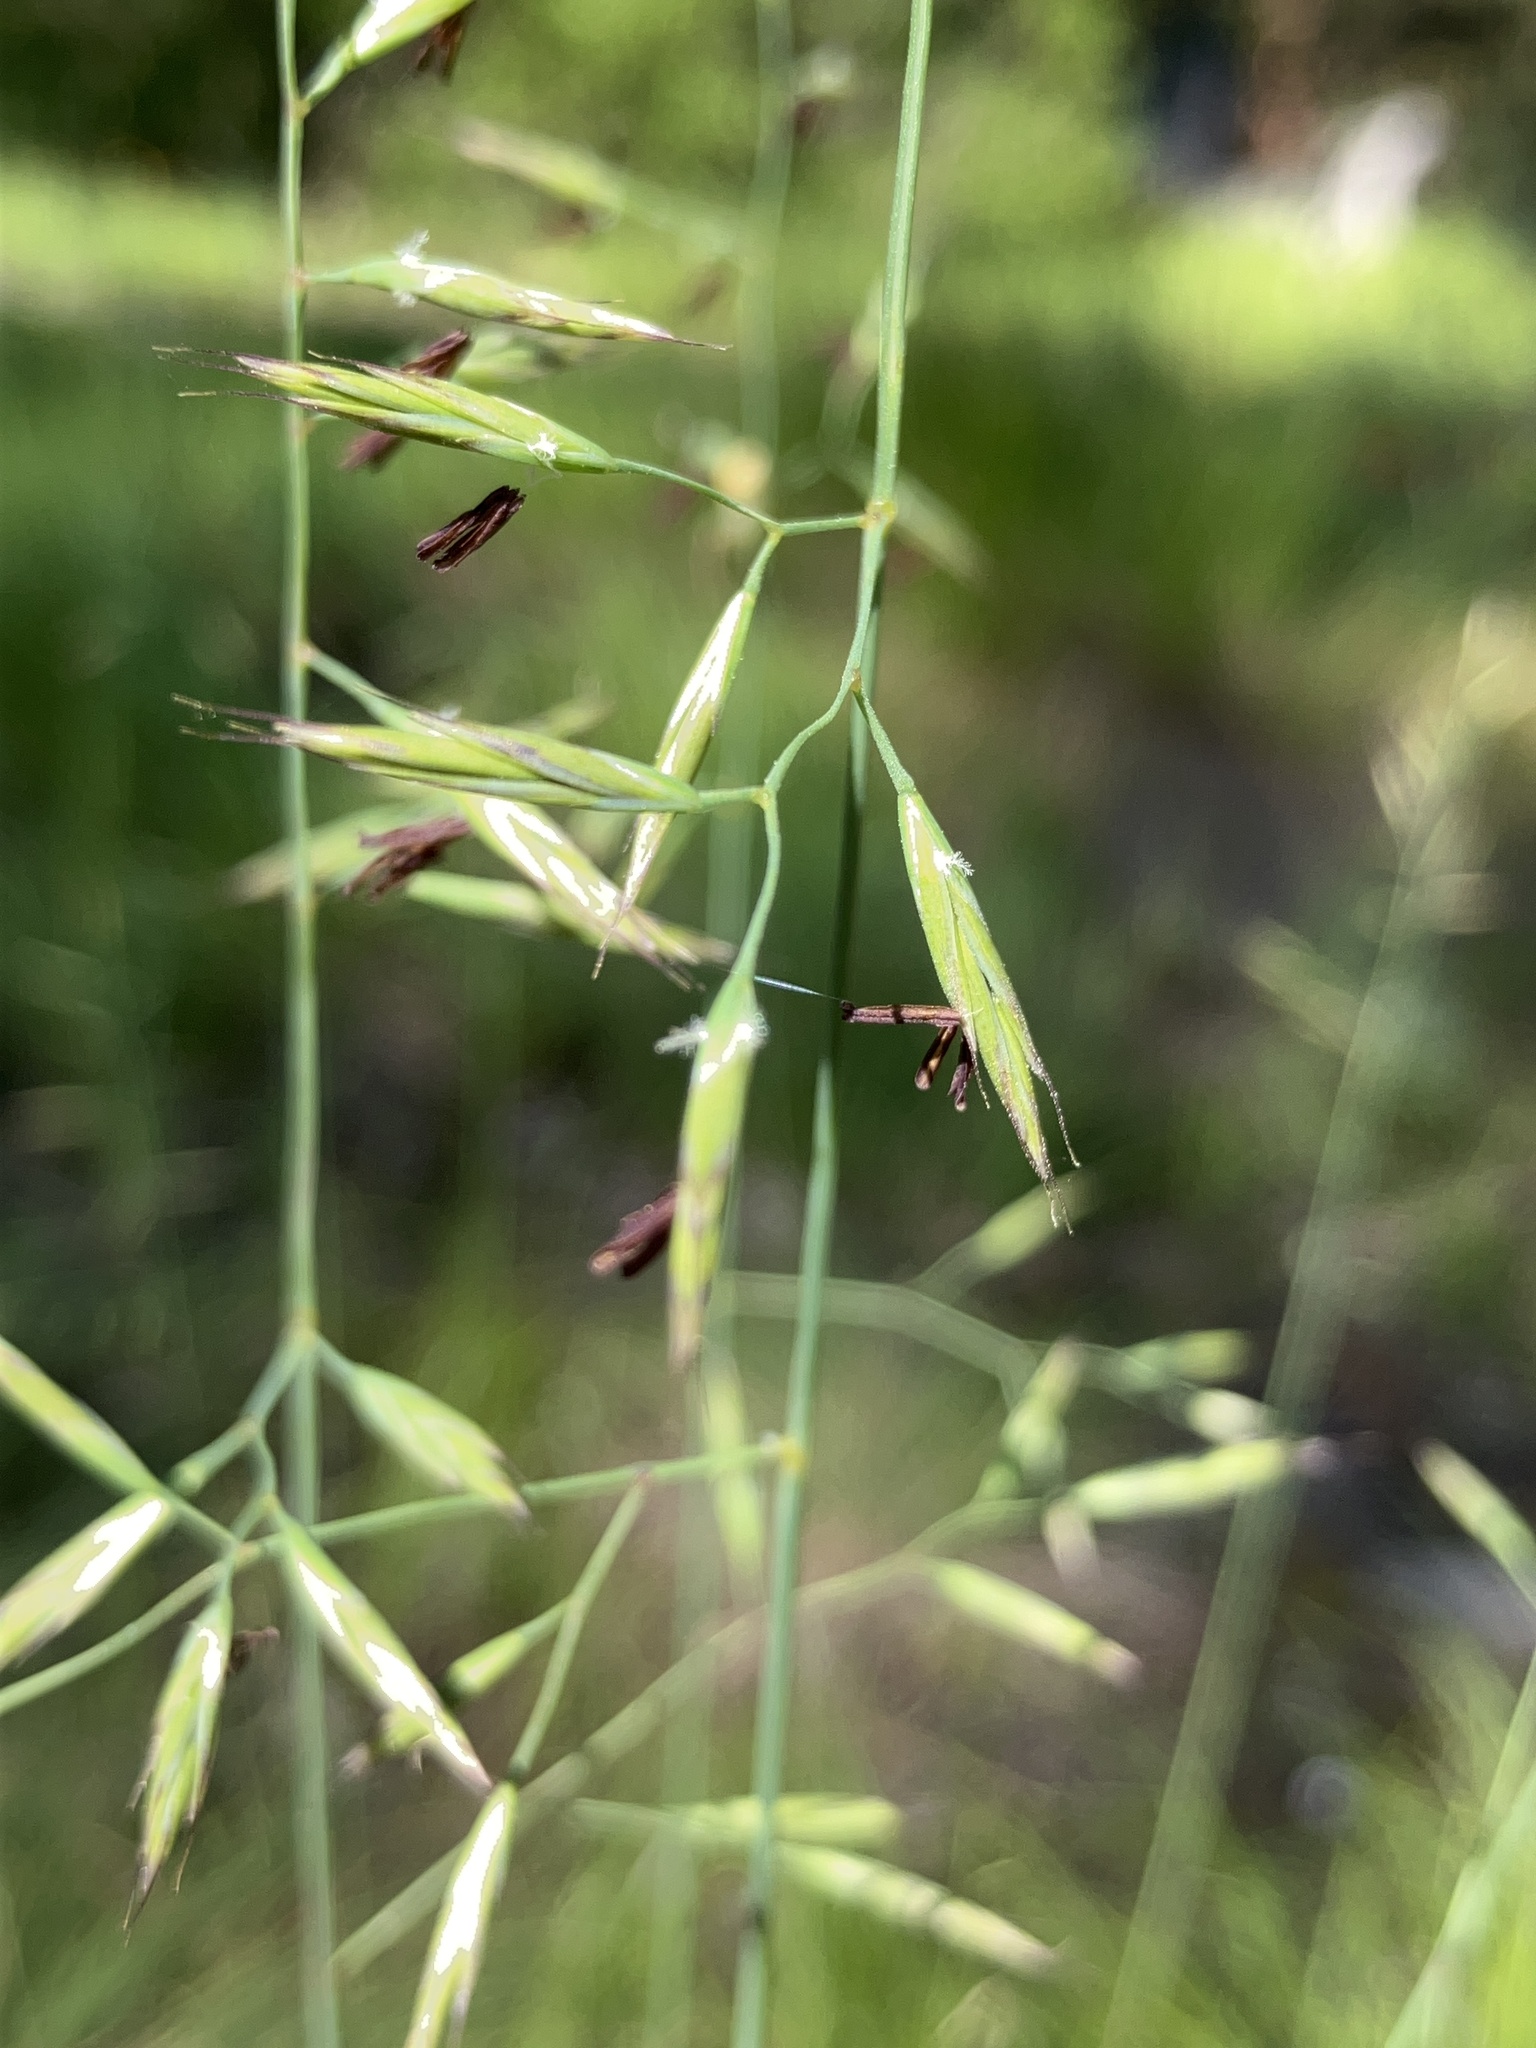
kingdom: Plantae
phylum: Tracheophyta
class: Liliopsida
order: Poales
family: Poaceae
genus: Festuca
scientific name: Festuca idahoensis
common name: Idaho fescue
